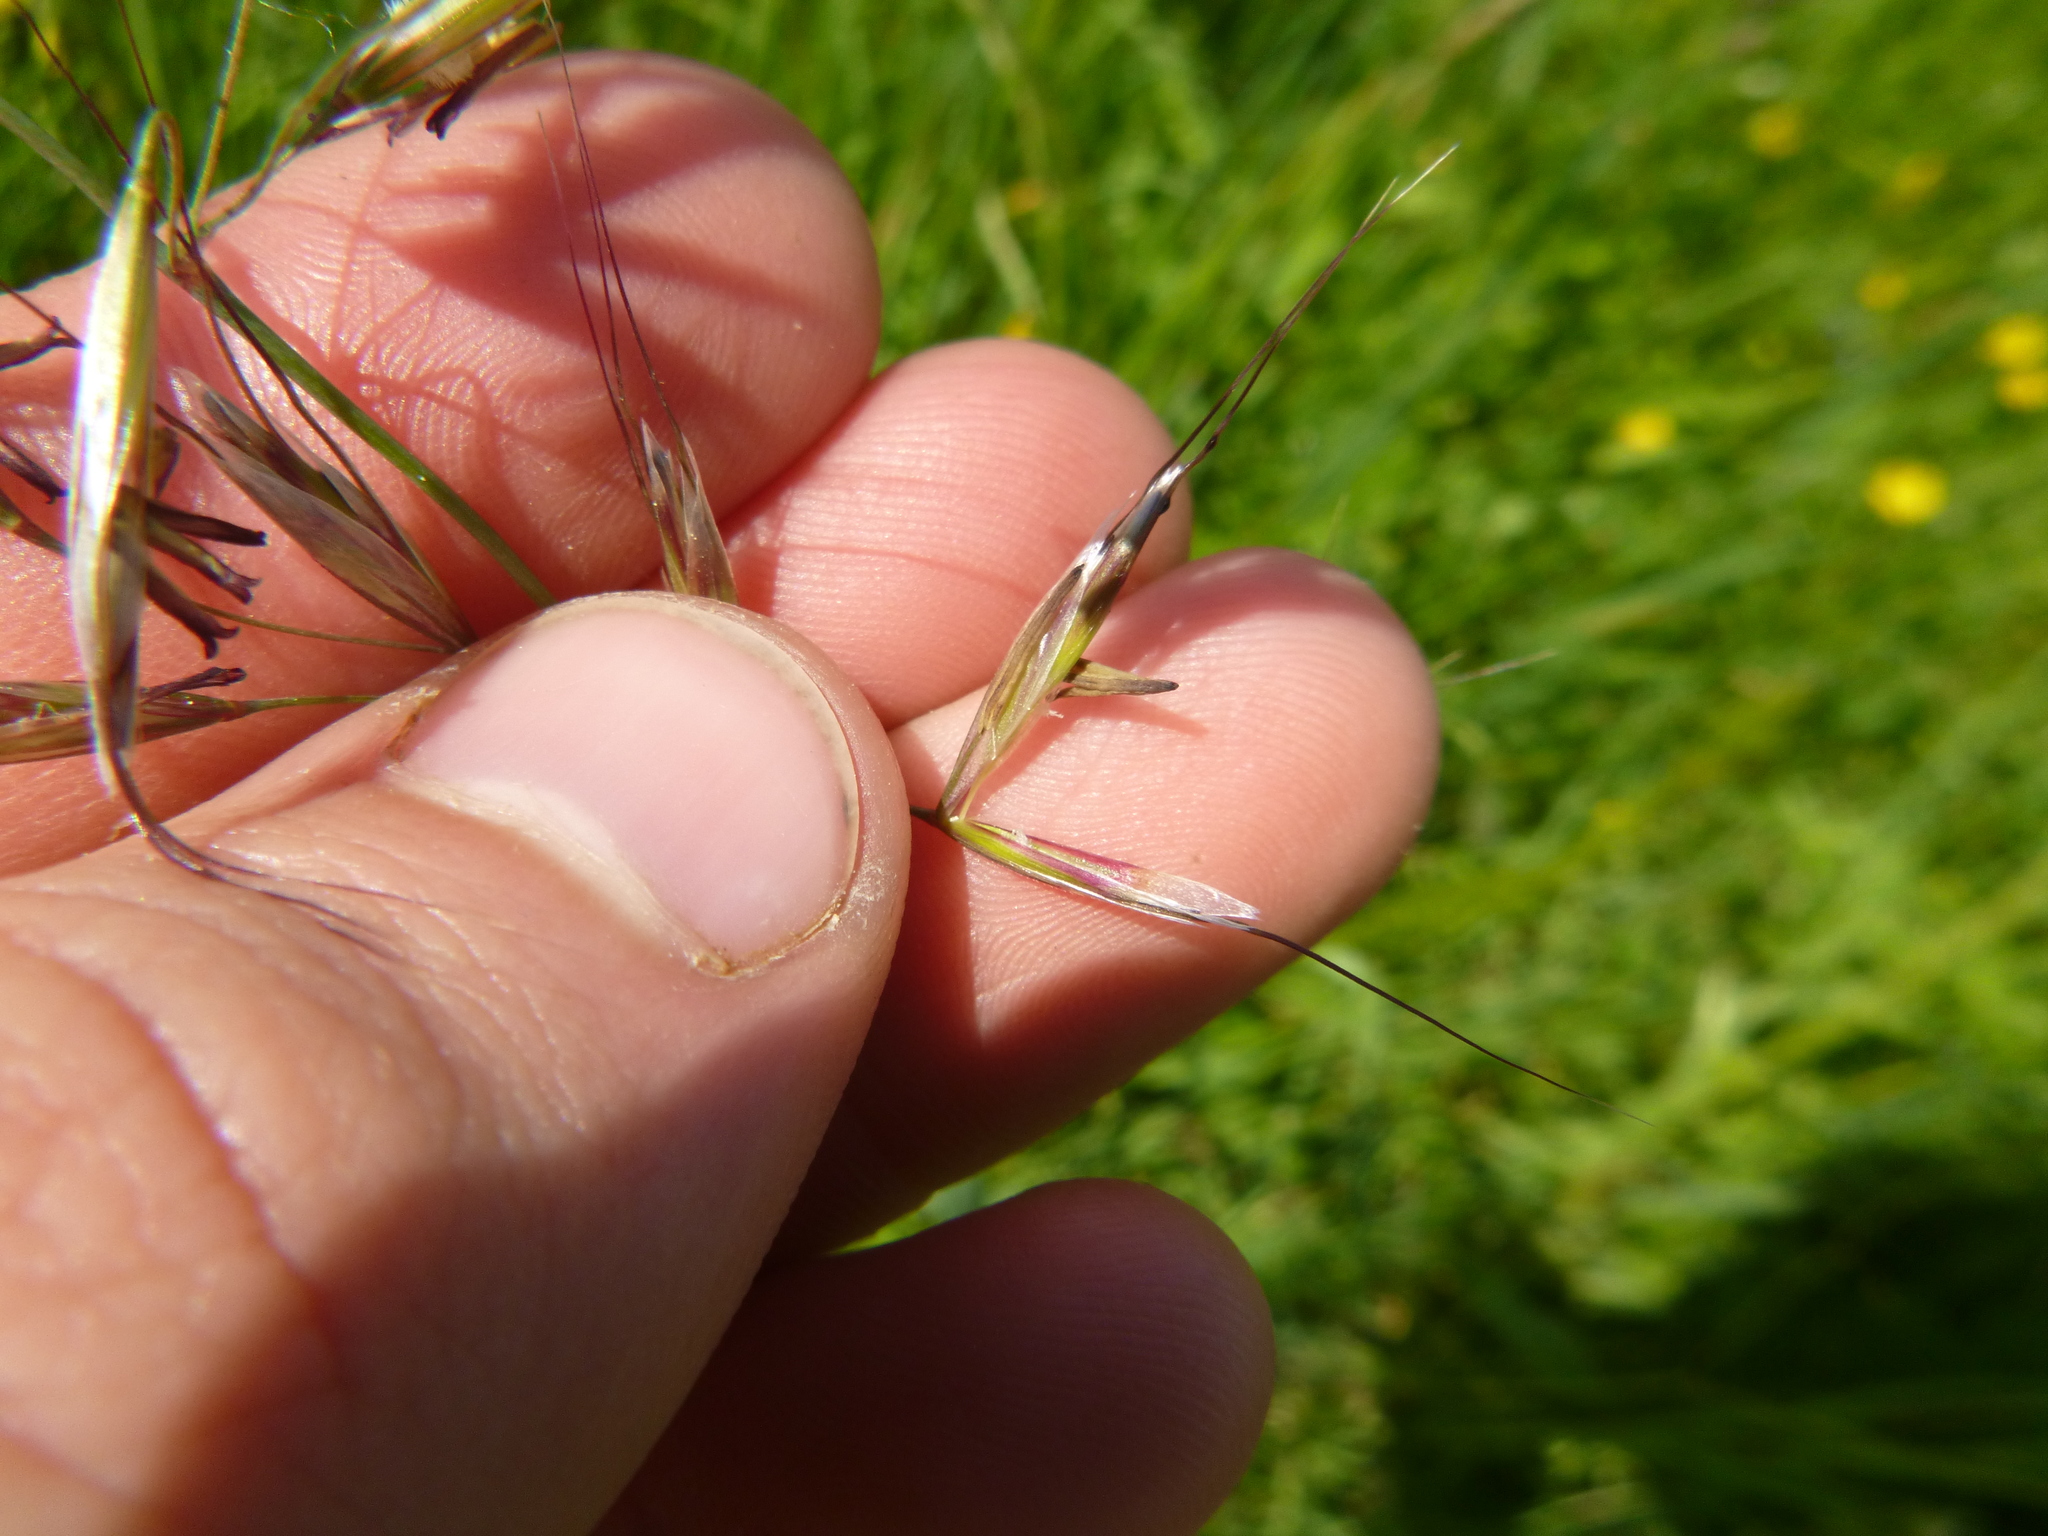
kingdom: Plantae
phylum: Tracheophyta
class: Liliopsida
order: Poales
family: Poaceae
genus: Avenula
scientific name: Avenula pubescens
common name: Downy alpine oatgrass
